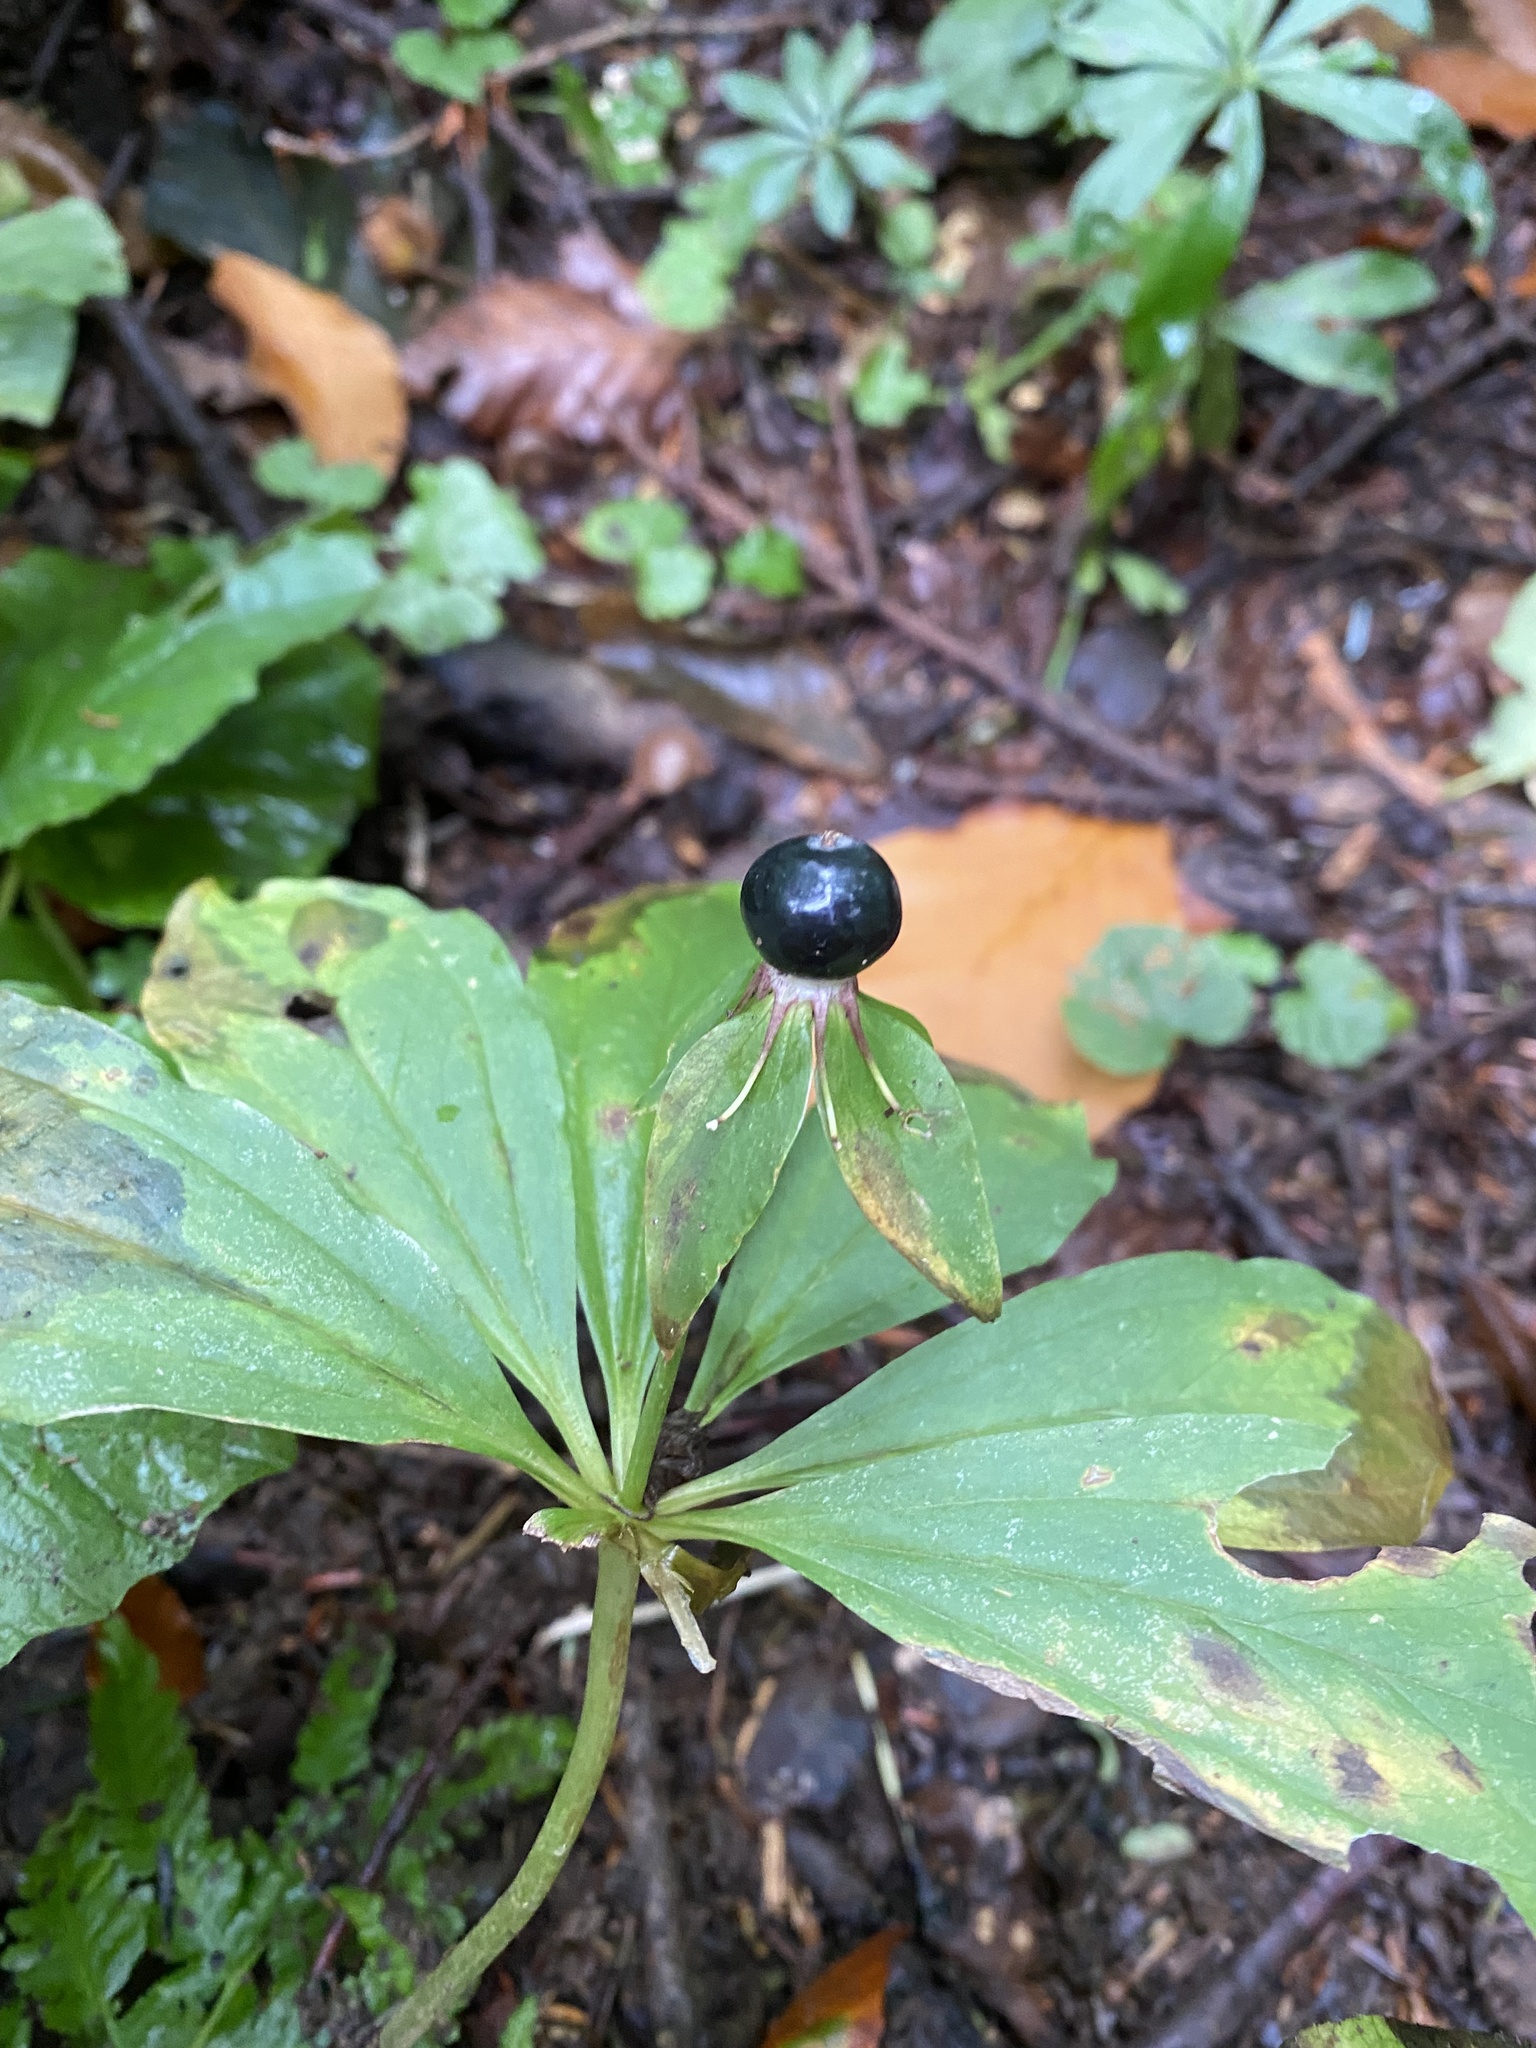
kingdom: Plantae
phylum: Tracheophyta
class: Liliopsida
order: Liliales
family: Melanthiaceae
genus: Paris
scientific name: Paris incompleta
